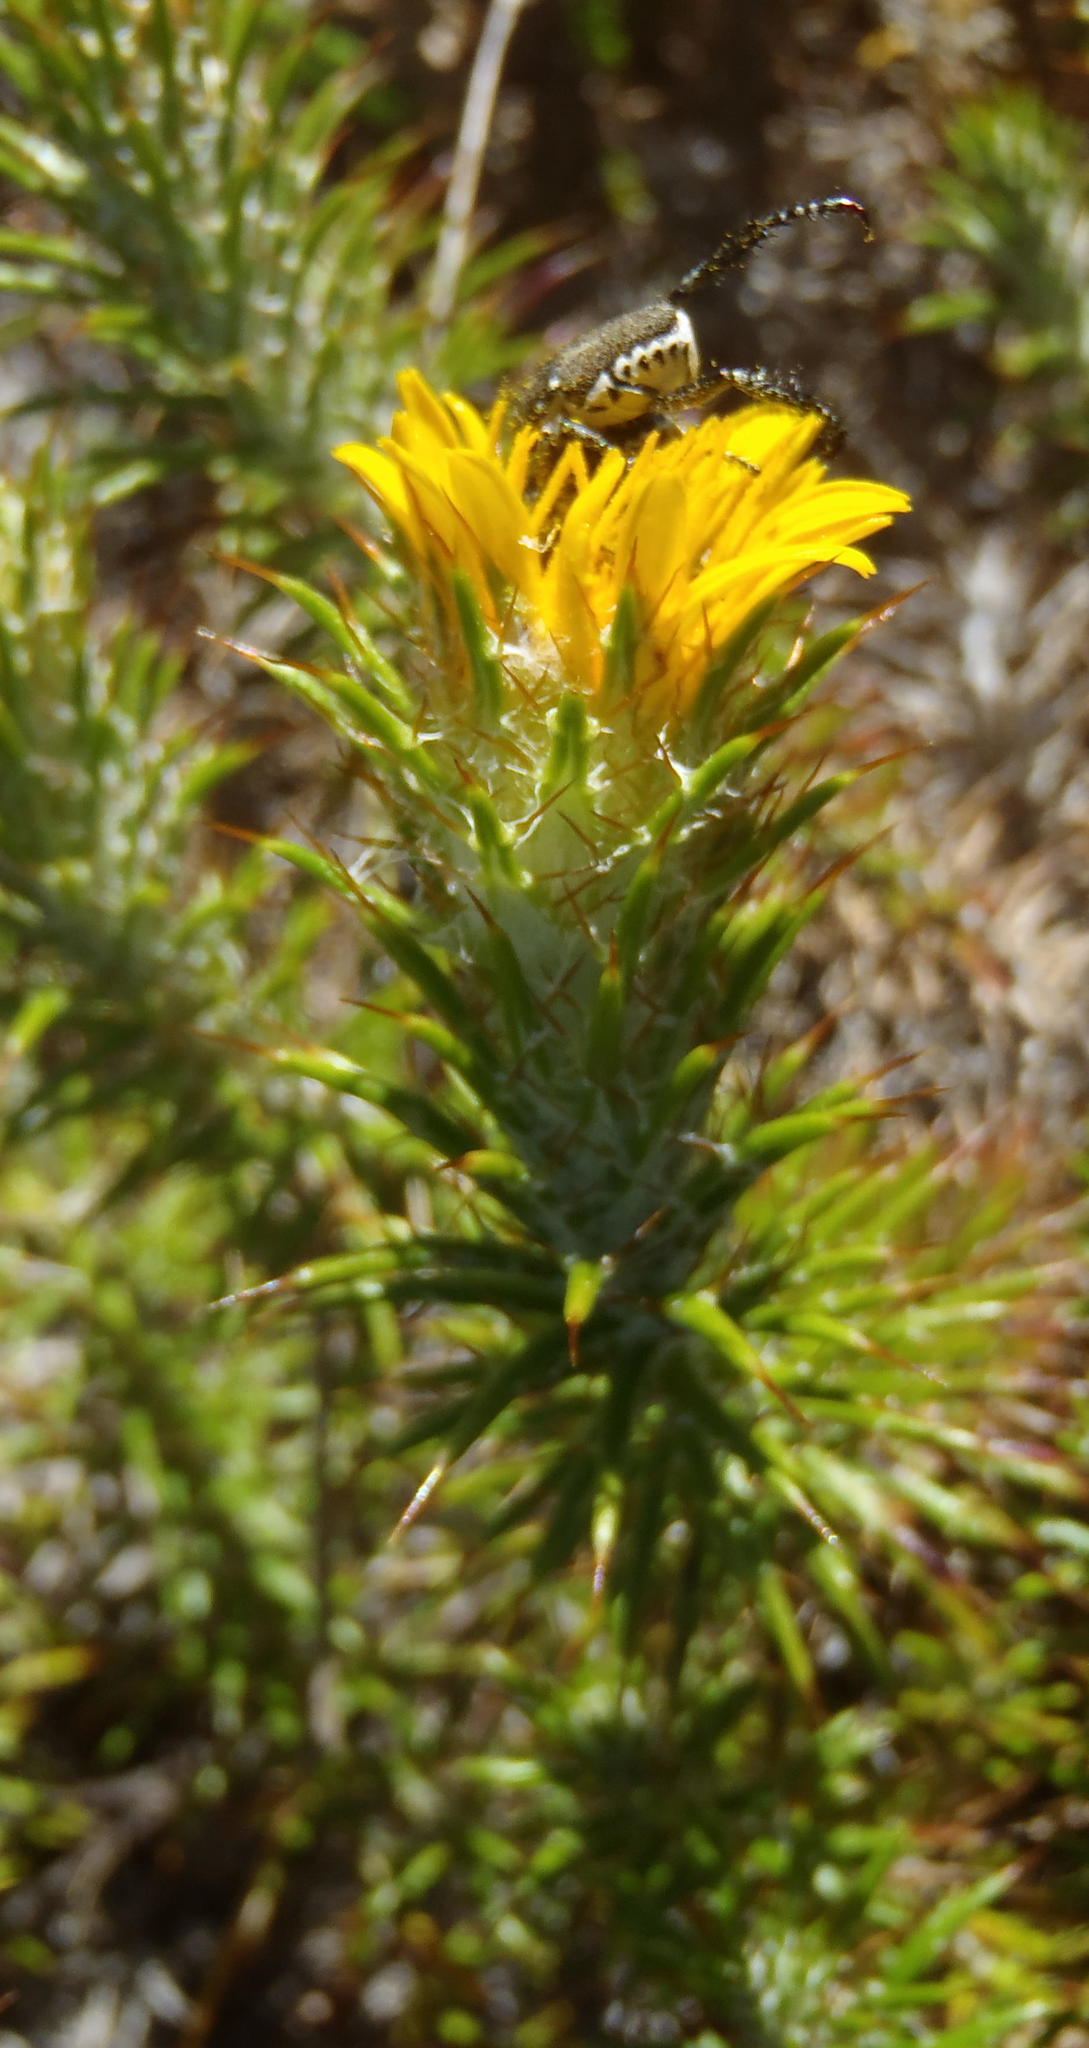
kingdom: Plantae
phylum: Tracheophyta
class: Magnoliopsida
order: Asterales
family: Asteraceae
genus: Cullumia
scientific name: Cullumia patula
